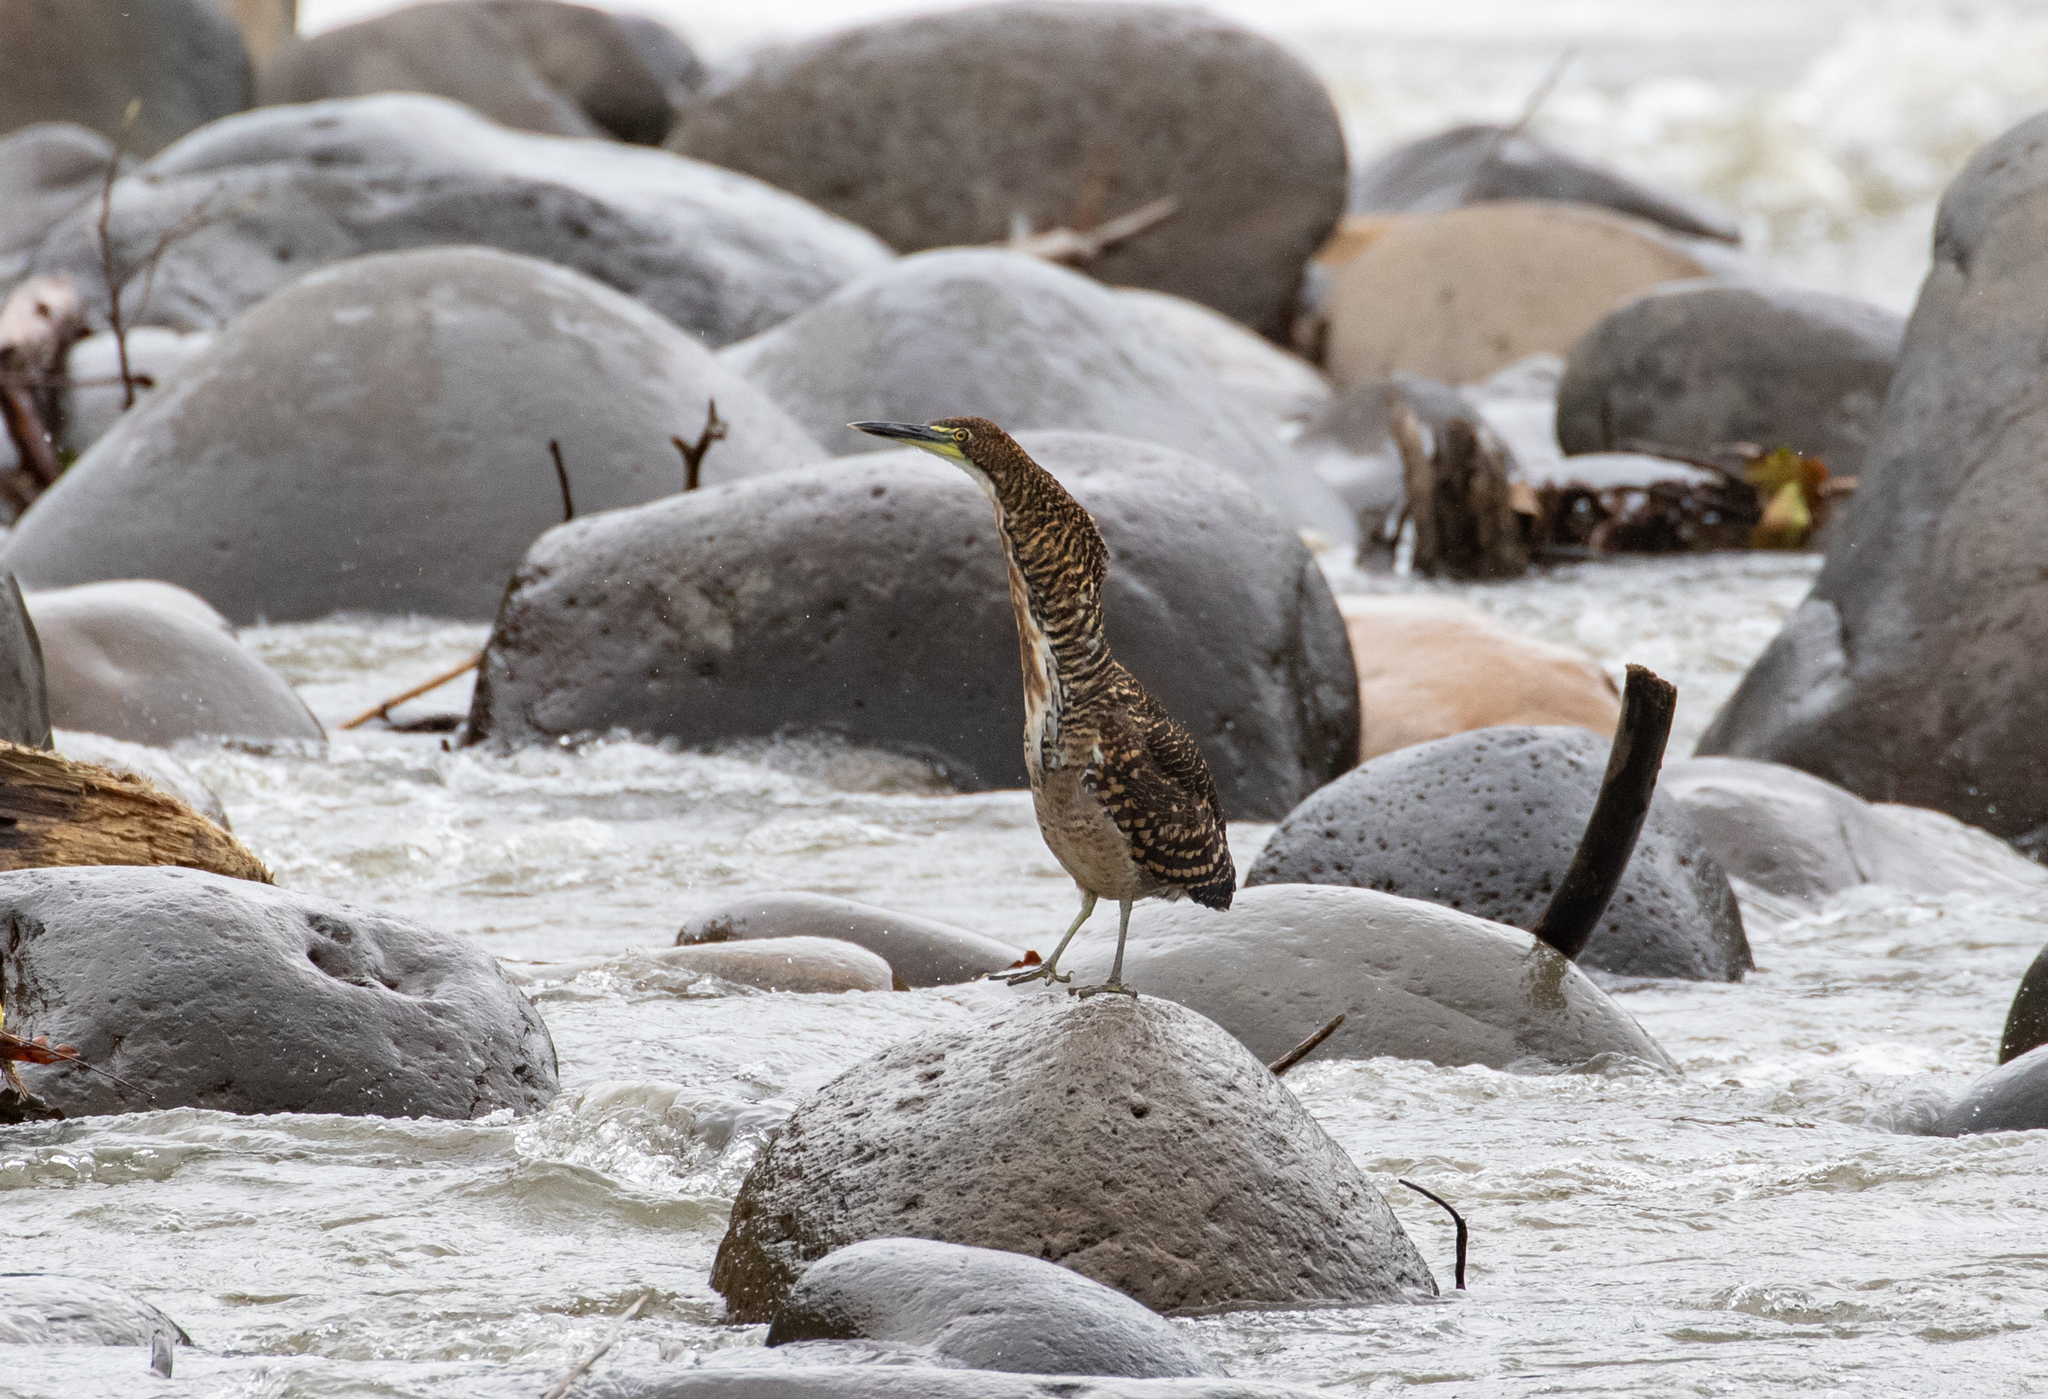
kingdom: Animalia
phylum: Chordata
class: Aves
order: Pelecaniformes
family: Ardeidae
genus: Tigrisoma
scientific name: Tigrisoma fasciatum
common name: Fasciated tiger-heron
